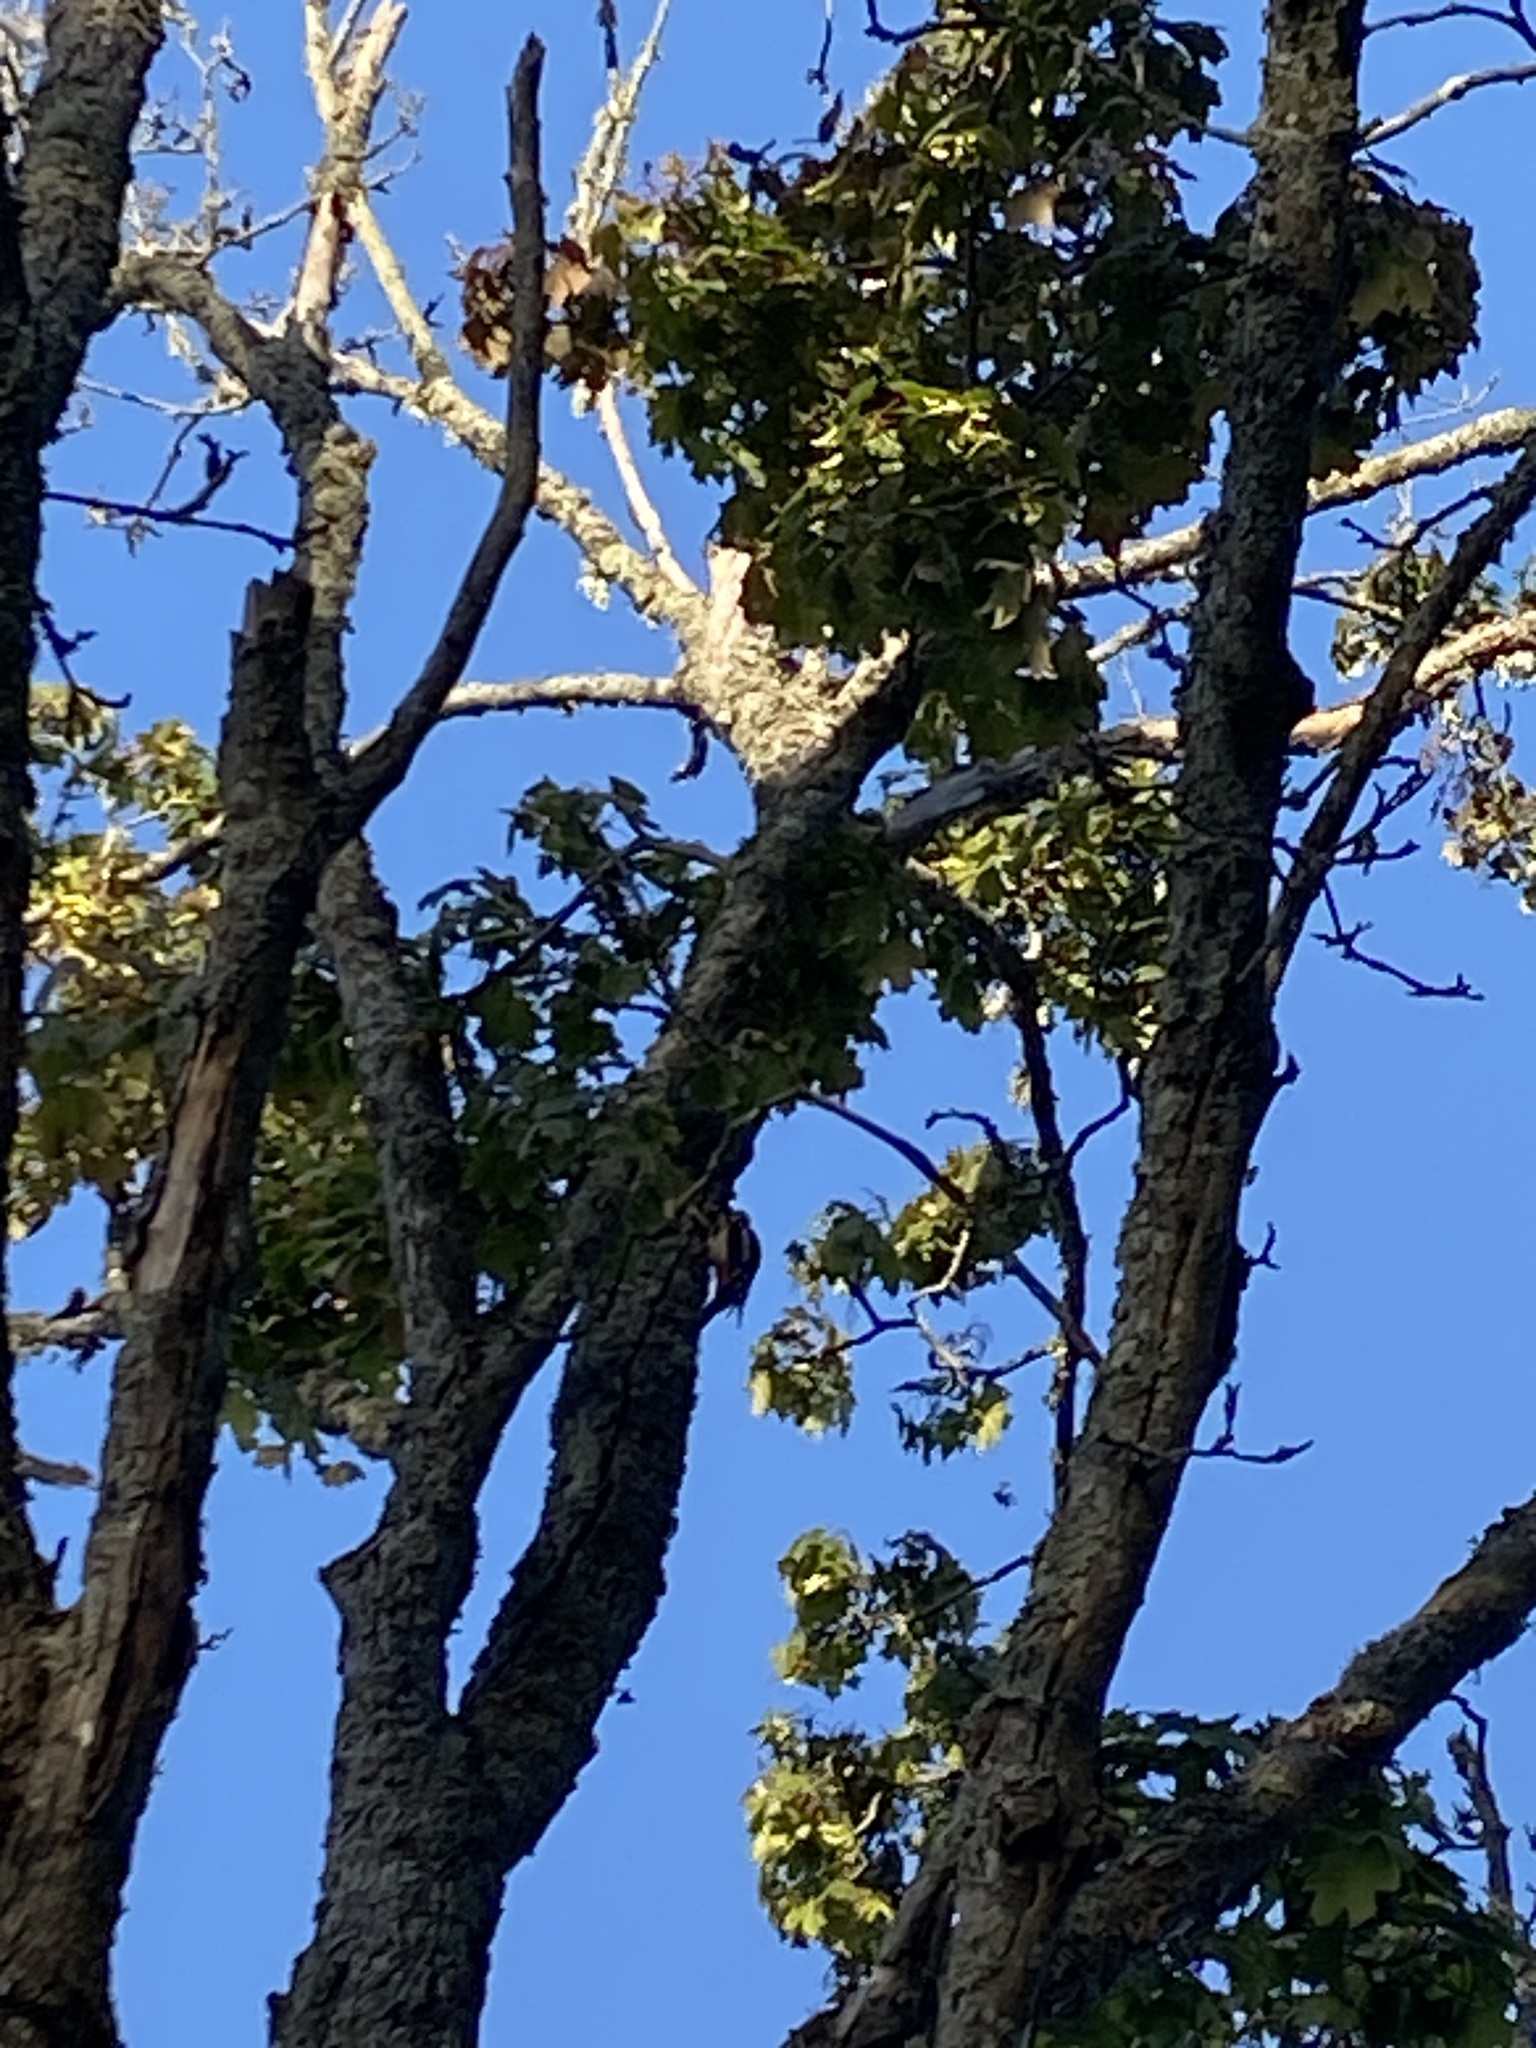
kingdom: Animalia
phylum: Chordata
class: Aves
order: Piciformes
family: Picidae
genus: Dendrocopos
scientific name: Dendrocopos major
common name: Great spotted woodpecker
